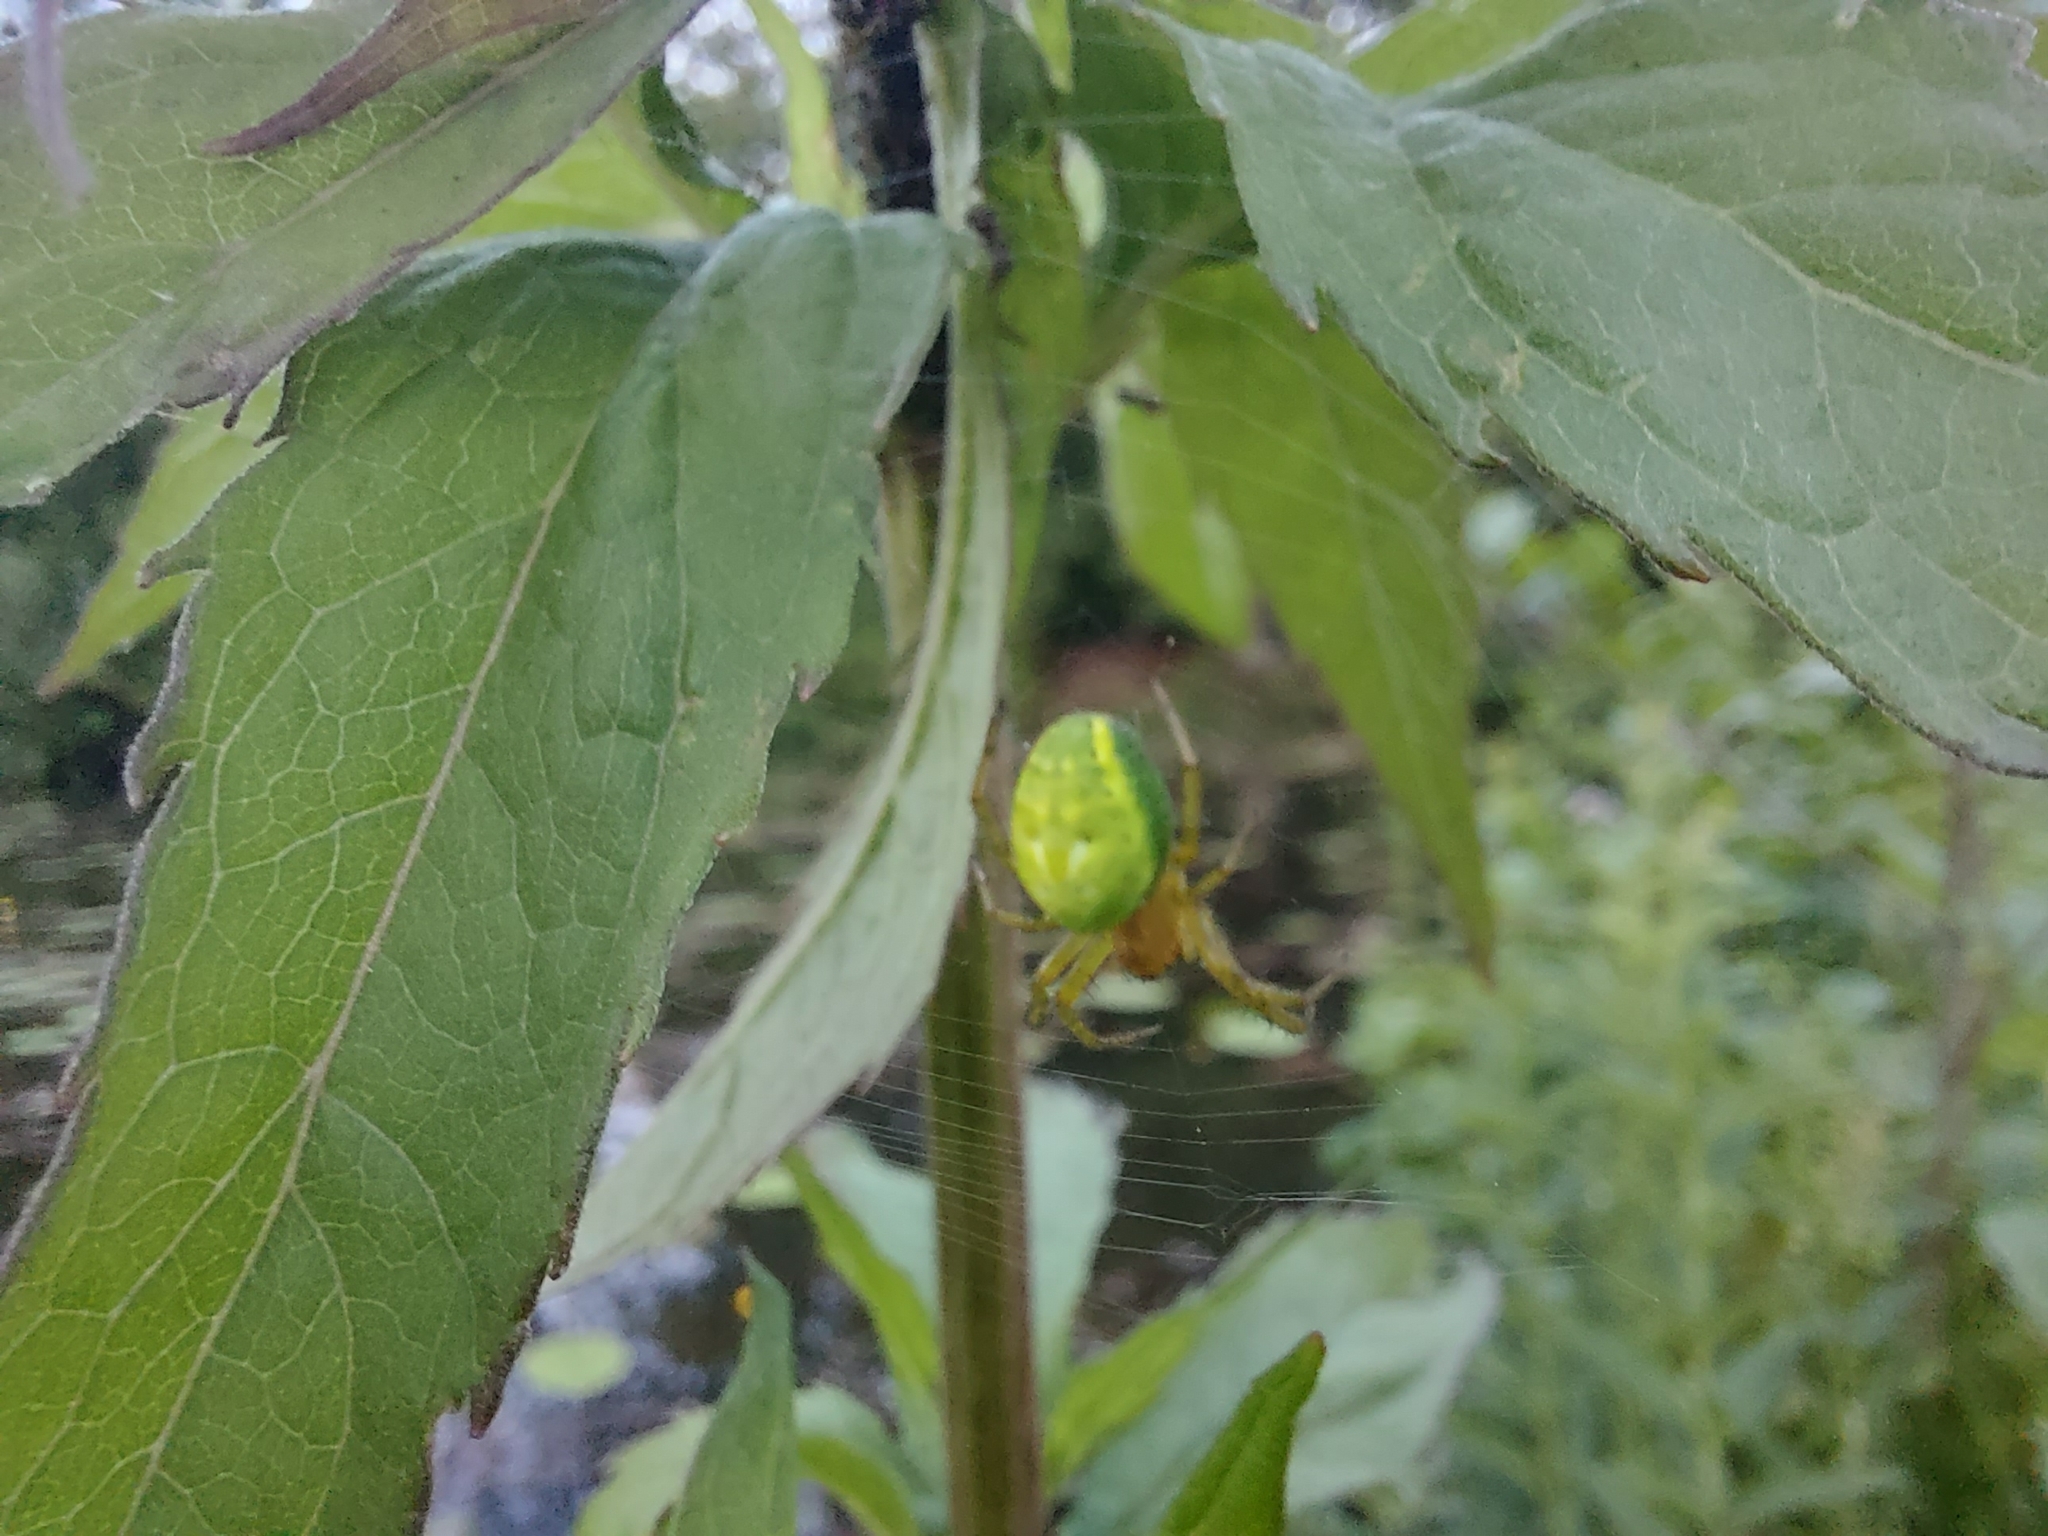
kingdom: Animalia
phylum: Arthropoda
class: Arachnida
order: Araneae
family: Araneidae
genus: Araniella
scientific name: Araniella
